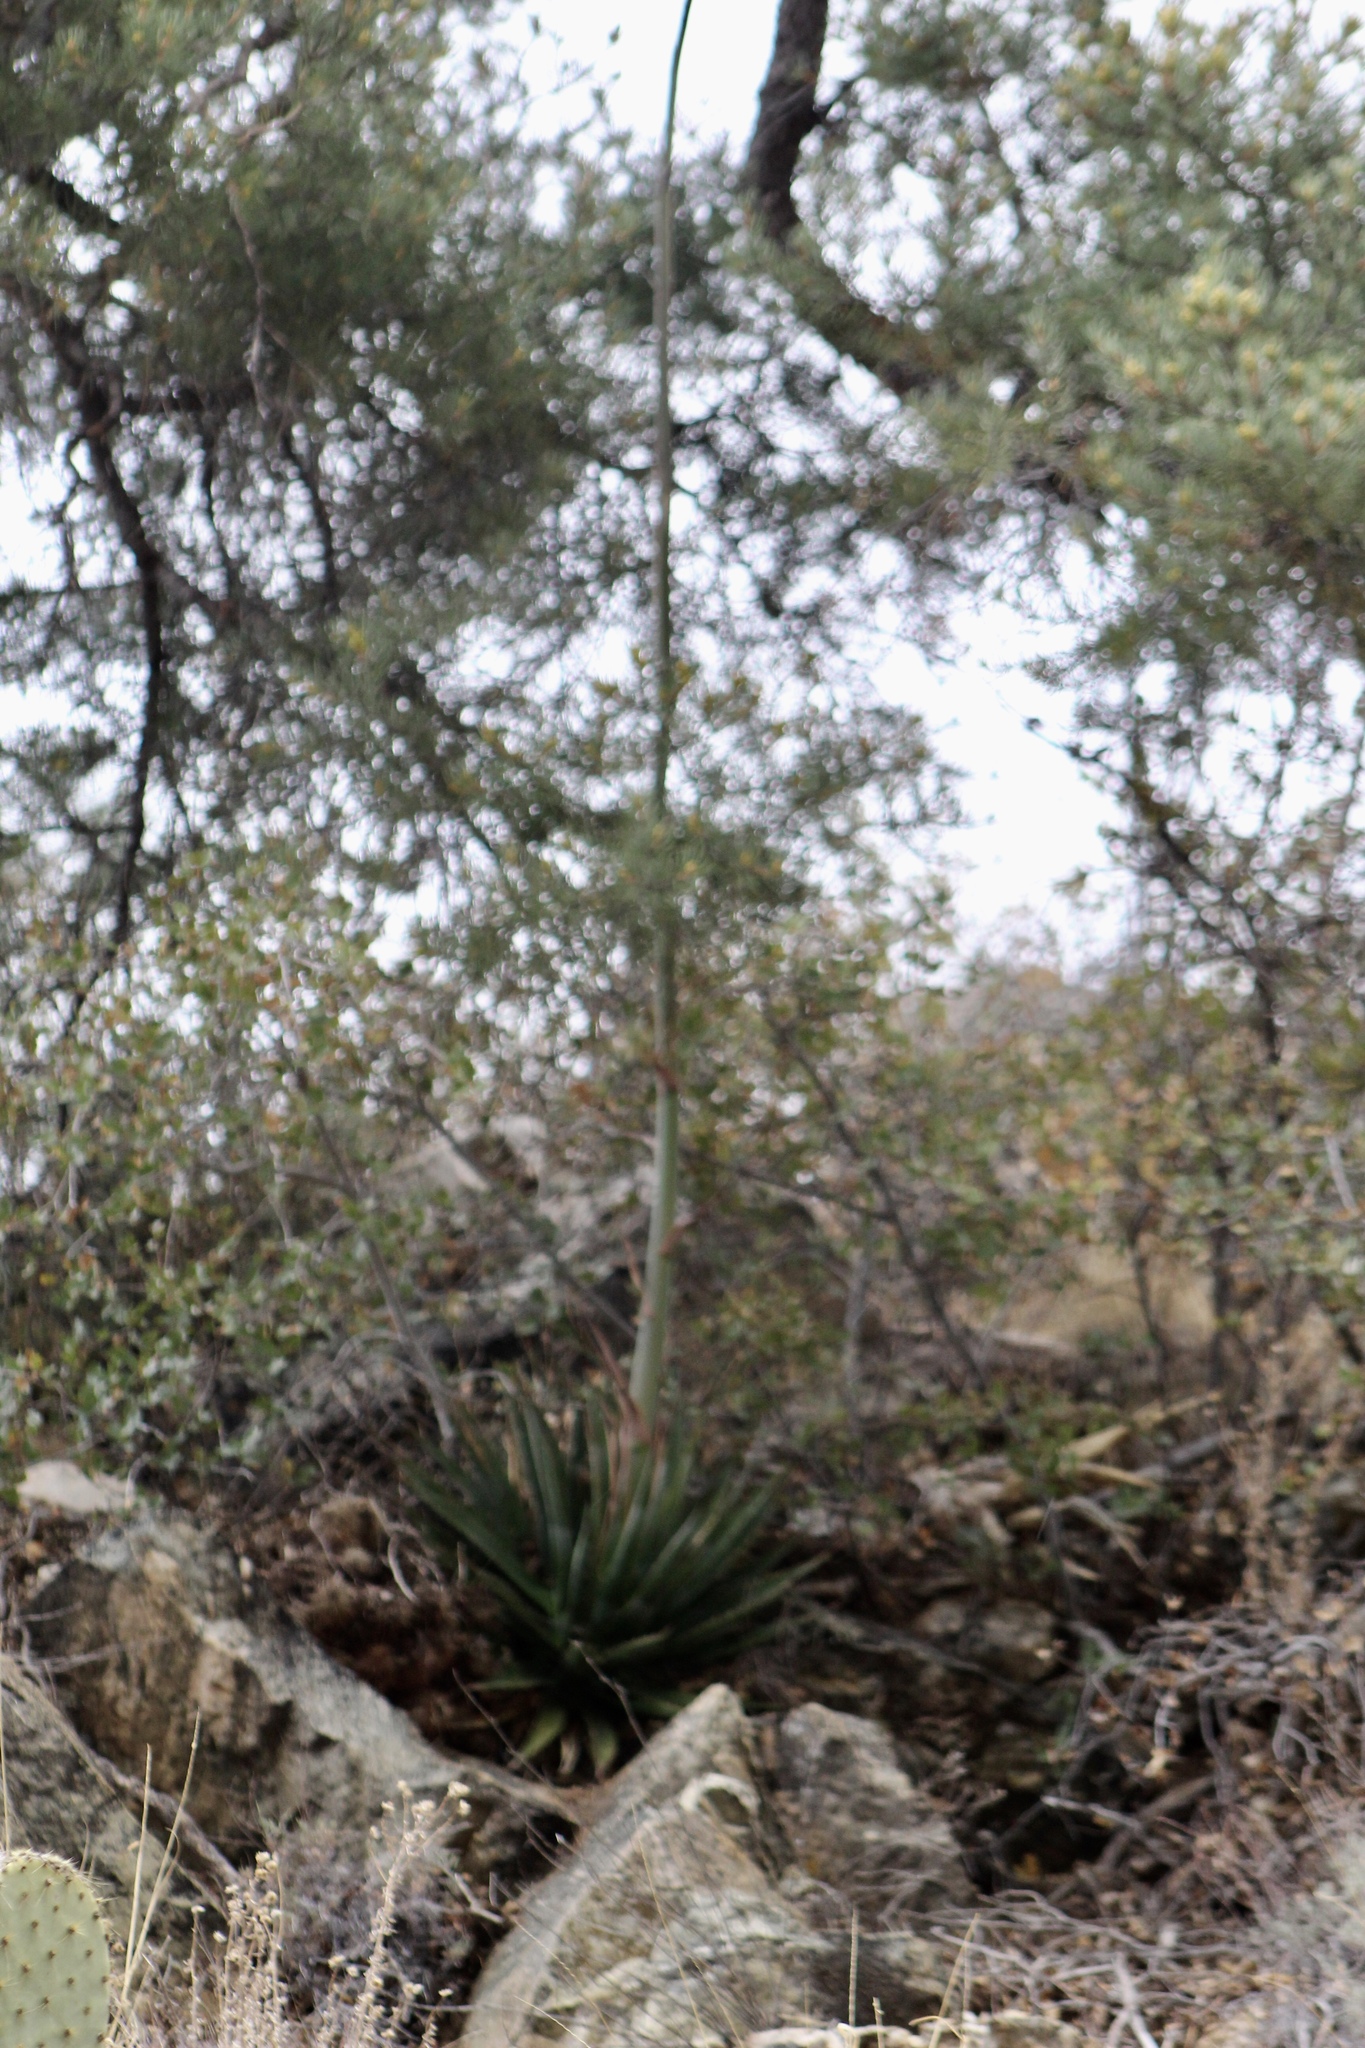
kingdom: Plantae
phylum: Tracheophyta
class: Liliopsida
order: Asparagales
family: Asparagaceae
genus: Agave
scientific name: Agave mckelveyana
